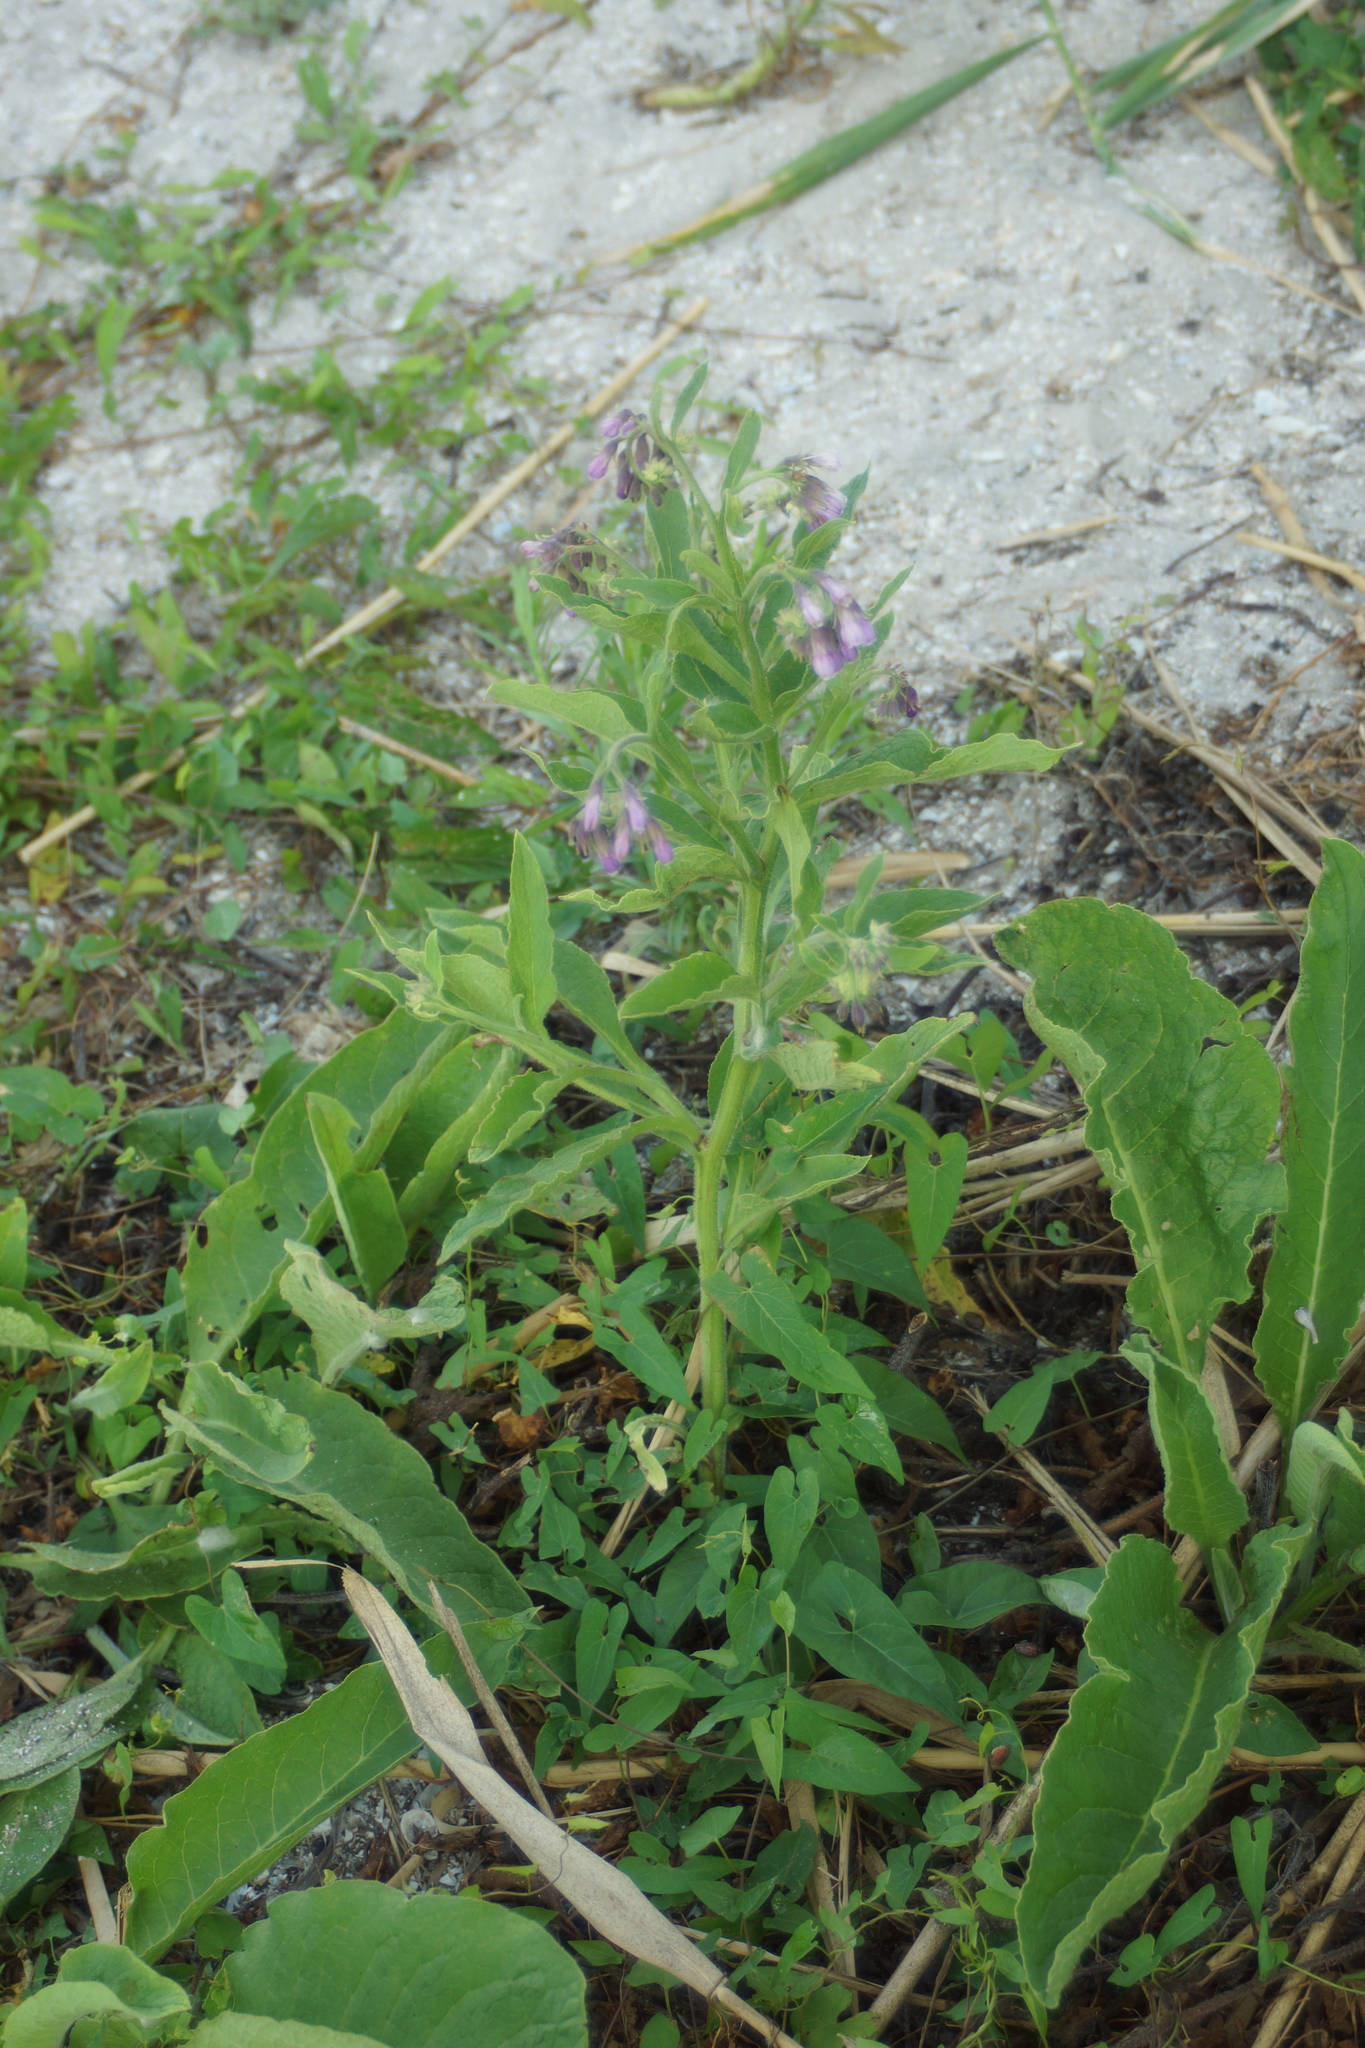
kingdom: Plantae
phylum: Tracheophyta
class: Magnoliopsida
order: Boraginales
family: Boraginaceae
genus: Symphytum
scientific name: Symphytum officinale
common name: Common comfrey
